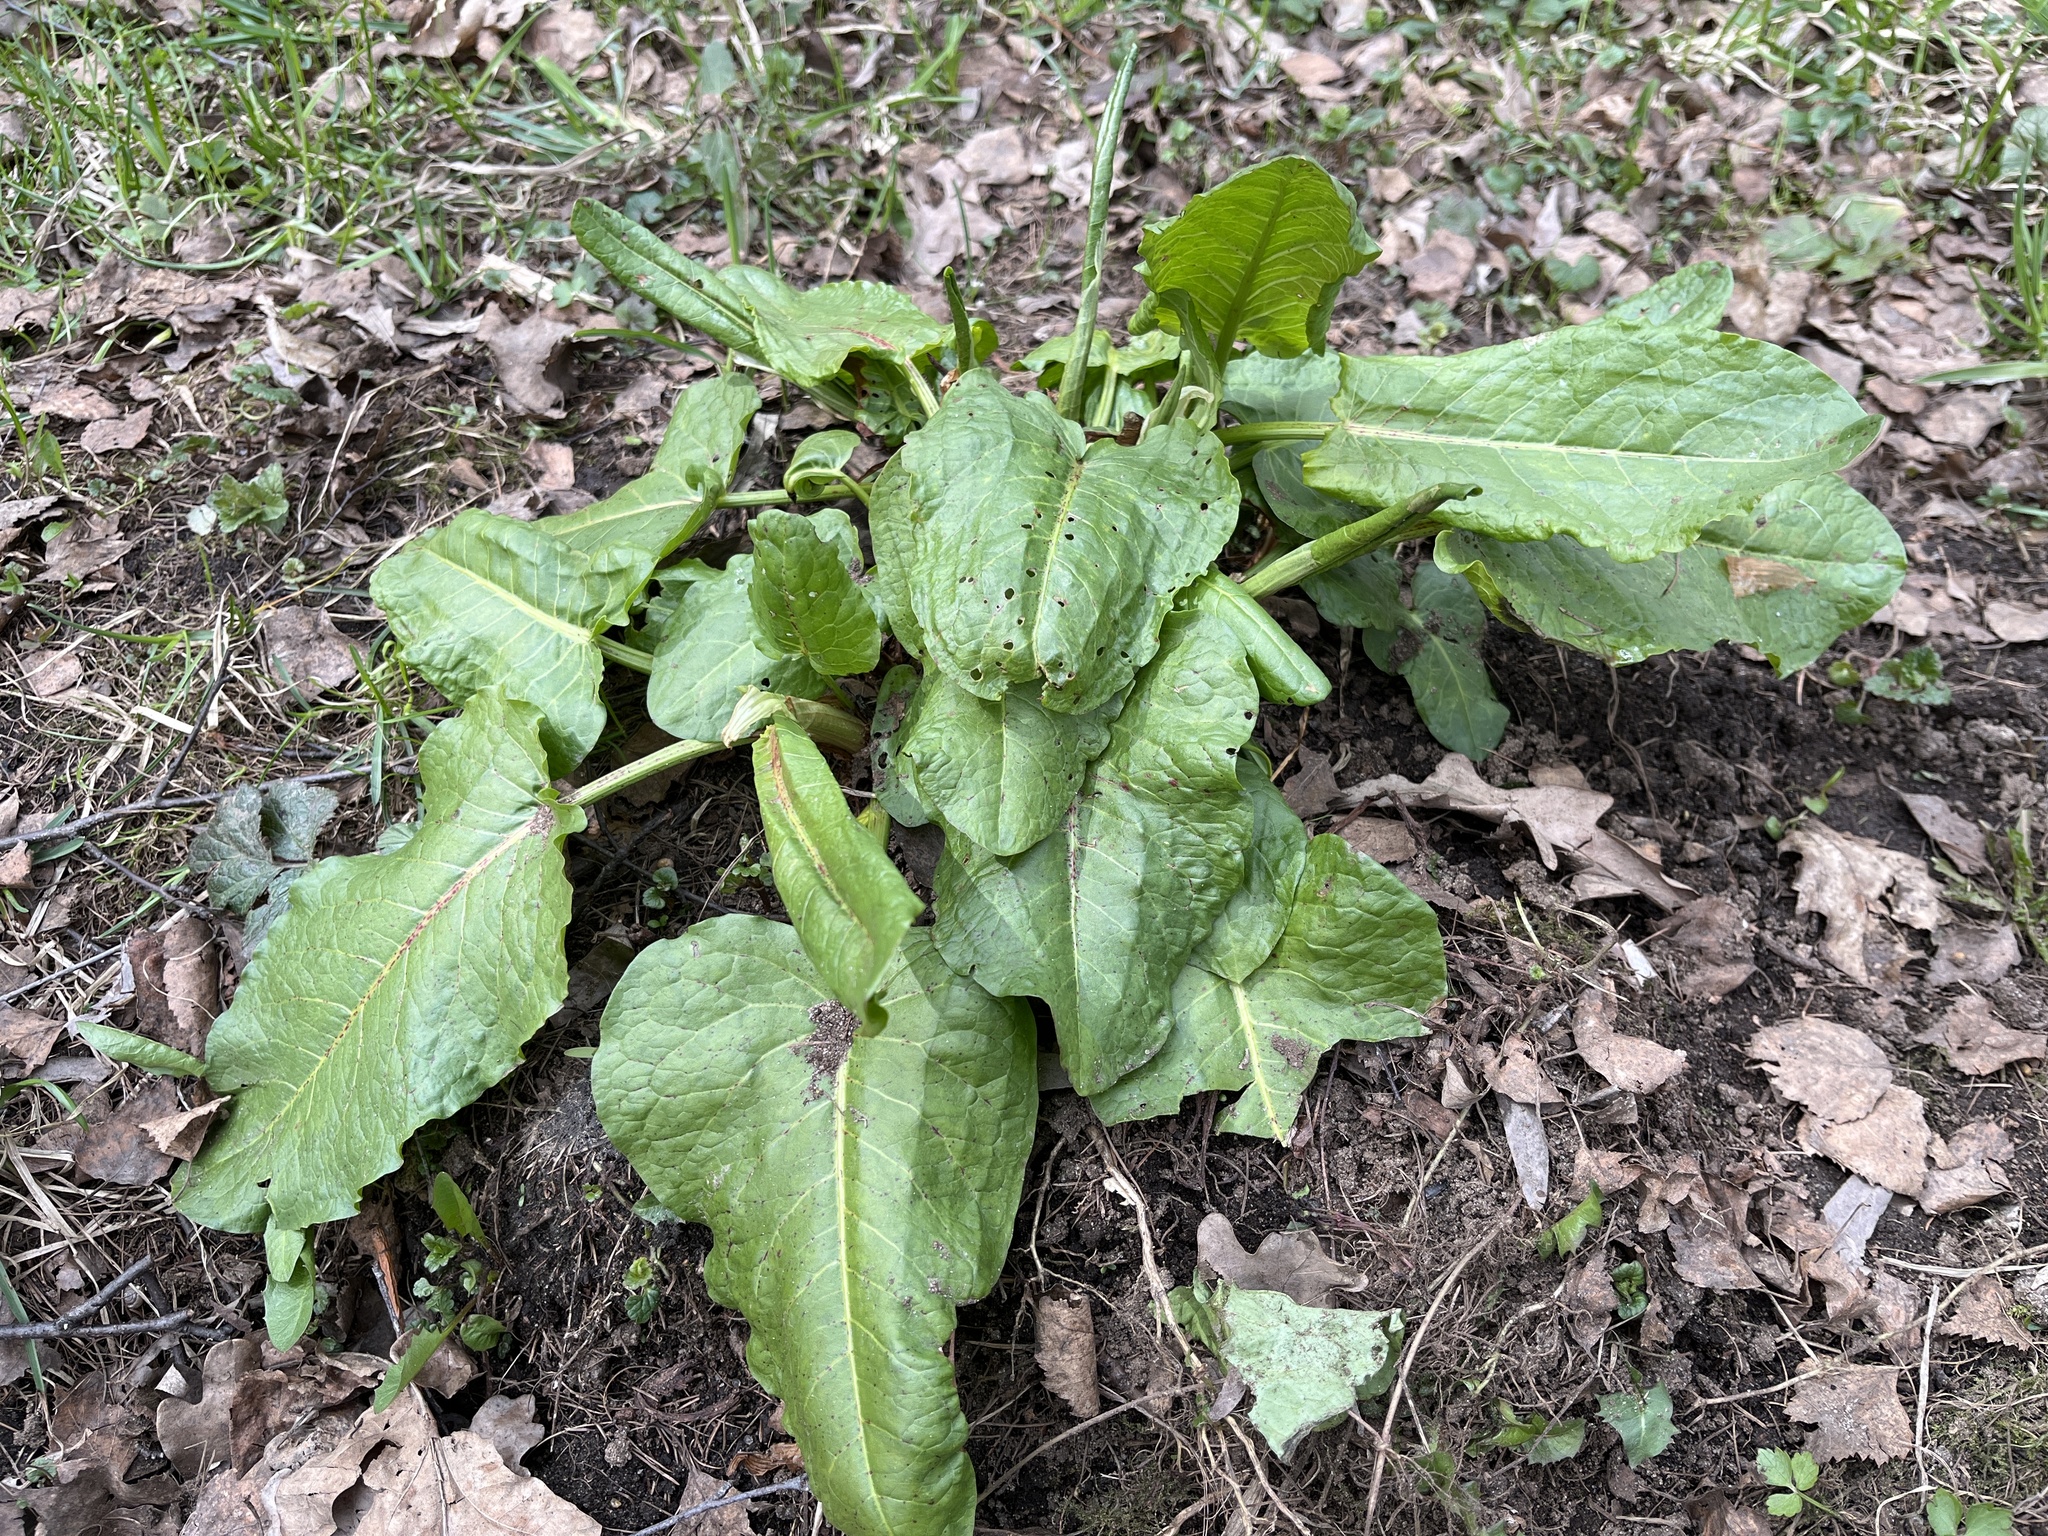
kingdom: Plantae
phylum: Tracheophyta
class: Magnoliopsida
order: Caryophyllales
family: Polygonaceae
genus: Rumex
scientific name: Rumex obtusifolius
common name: Bitter dock
